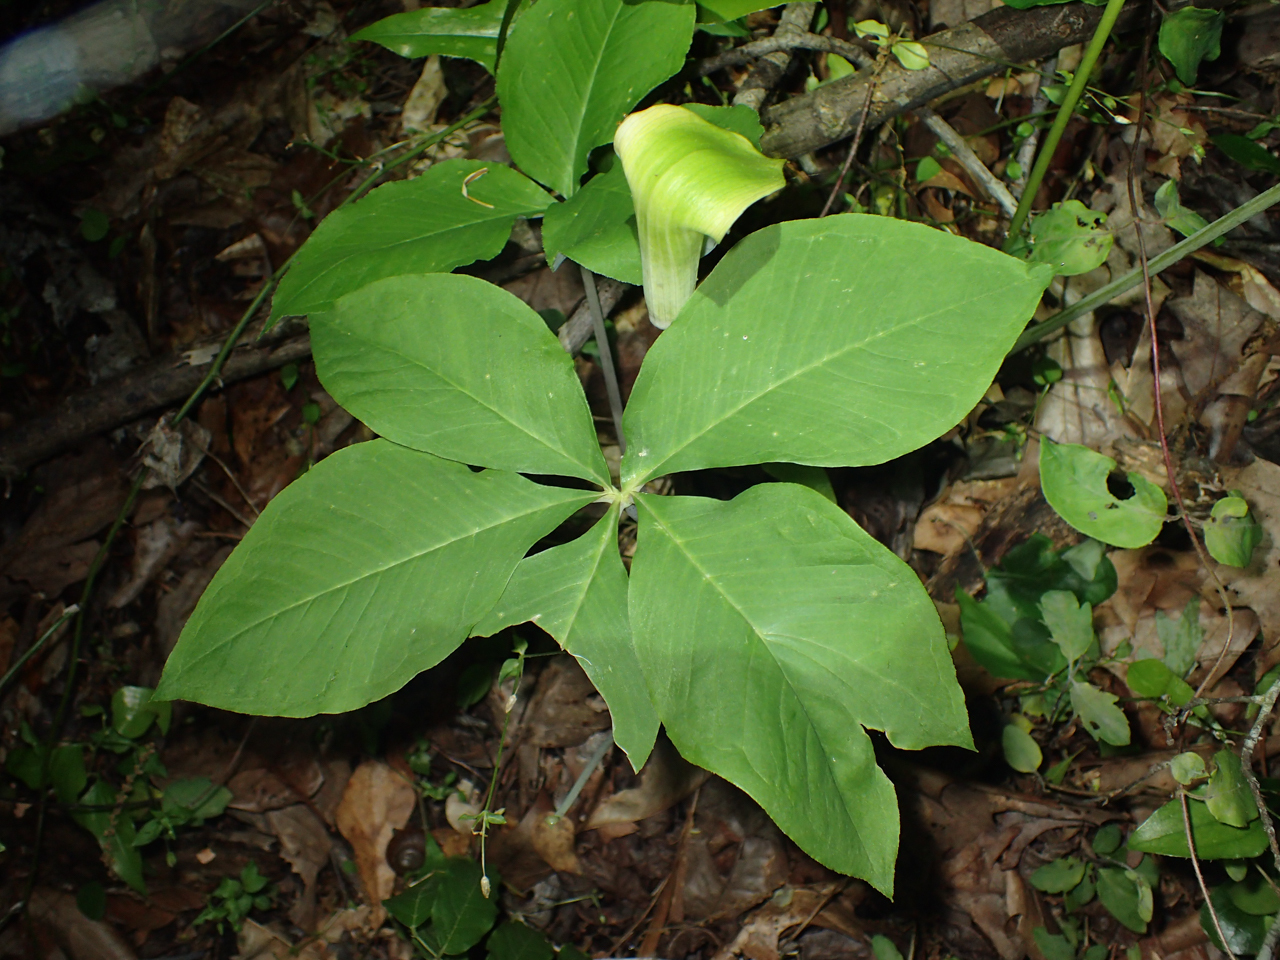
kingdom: Plantae
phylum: Tracheophyta
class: Liliopsida
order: Alismatales
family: Araceae
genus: Arisaema
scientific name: Arisaema quinatum
